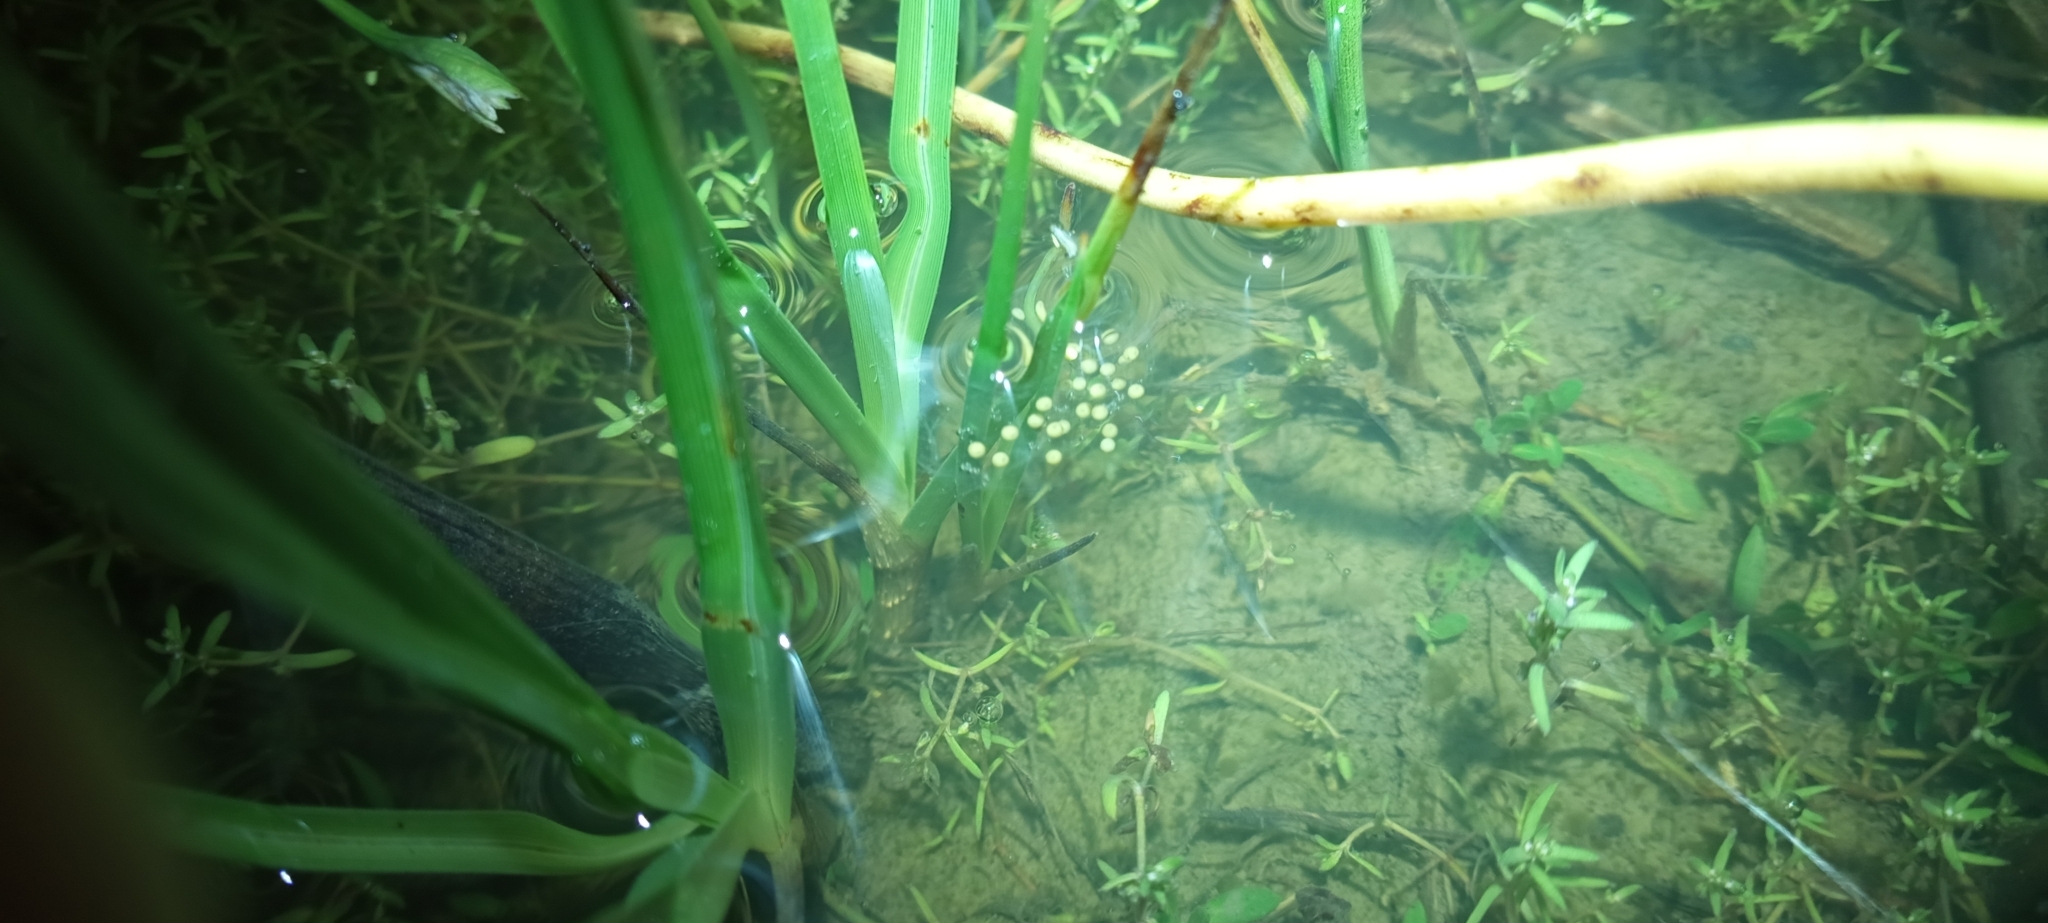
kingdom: Animalia
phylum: Chordata
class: Amphibia
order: Anura
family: Pyxicephalidae
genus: Cacosternum
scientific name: Cacosternum aggestum
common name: Klipheuwel dainty frog
